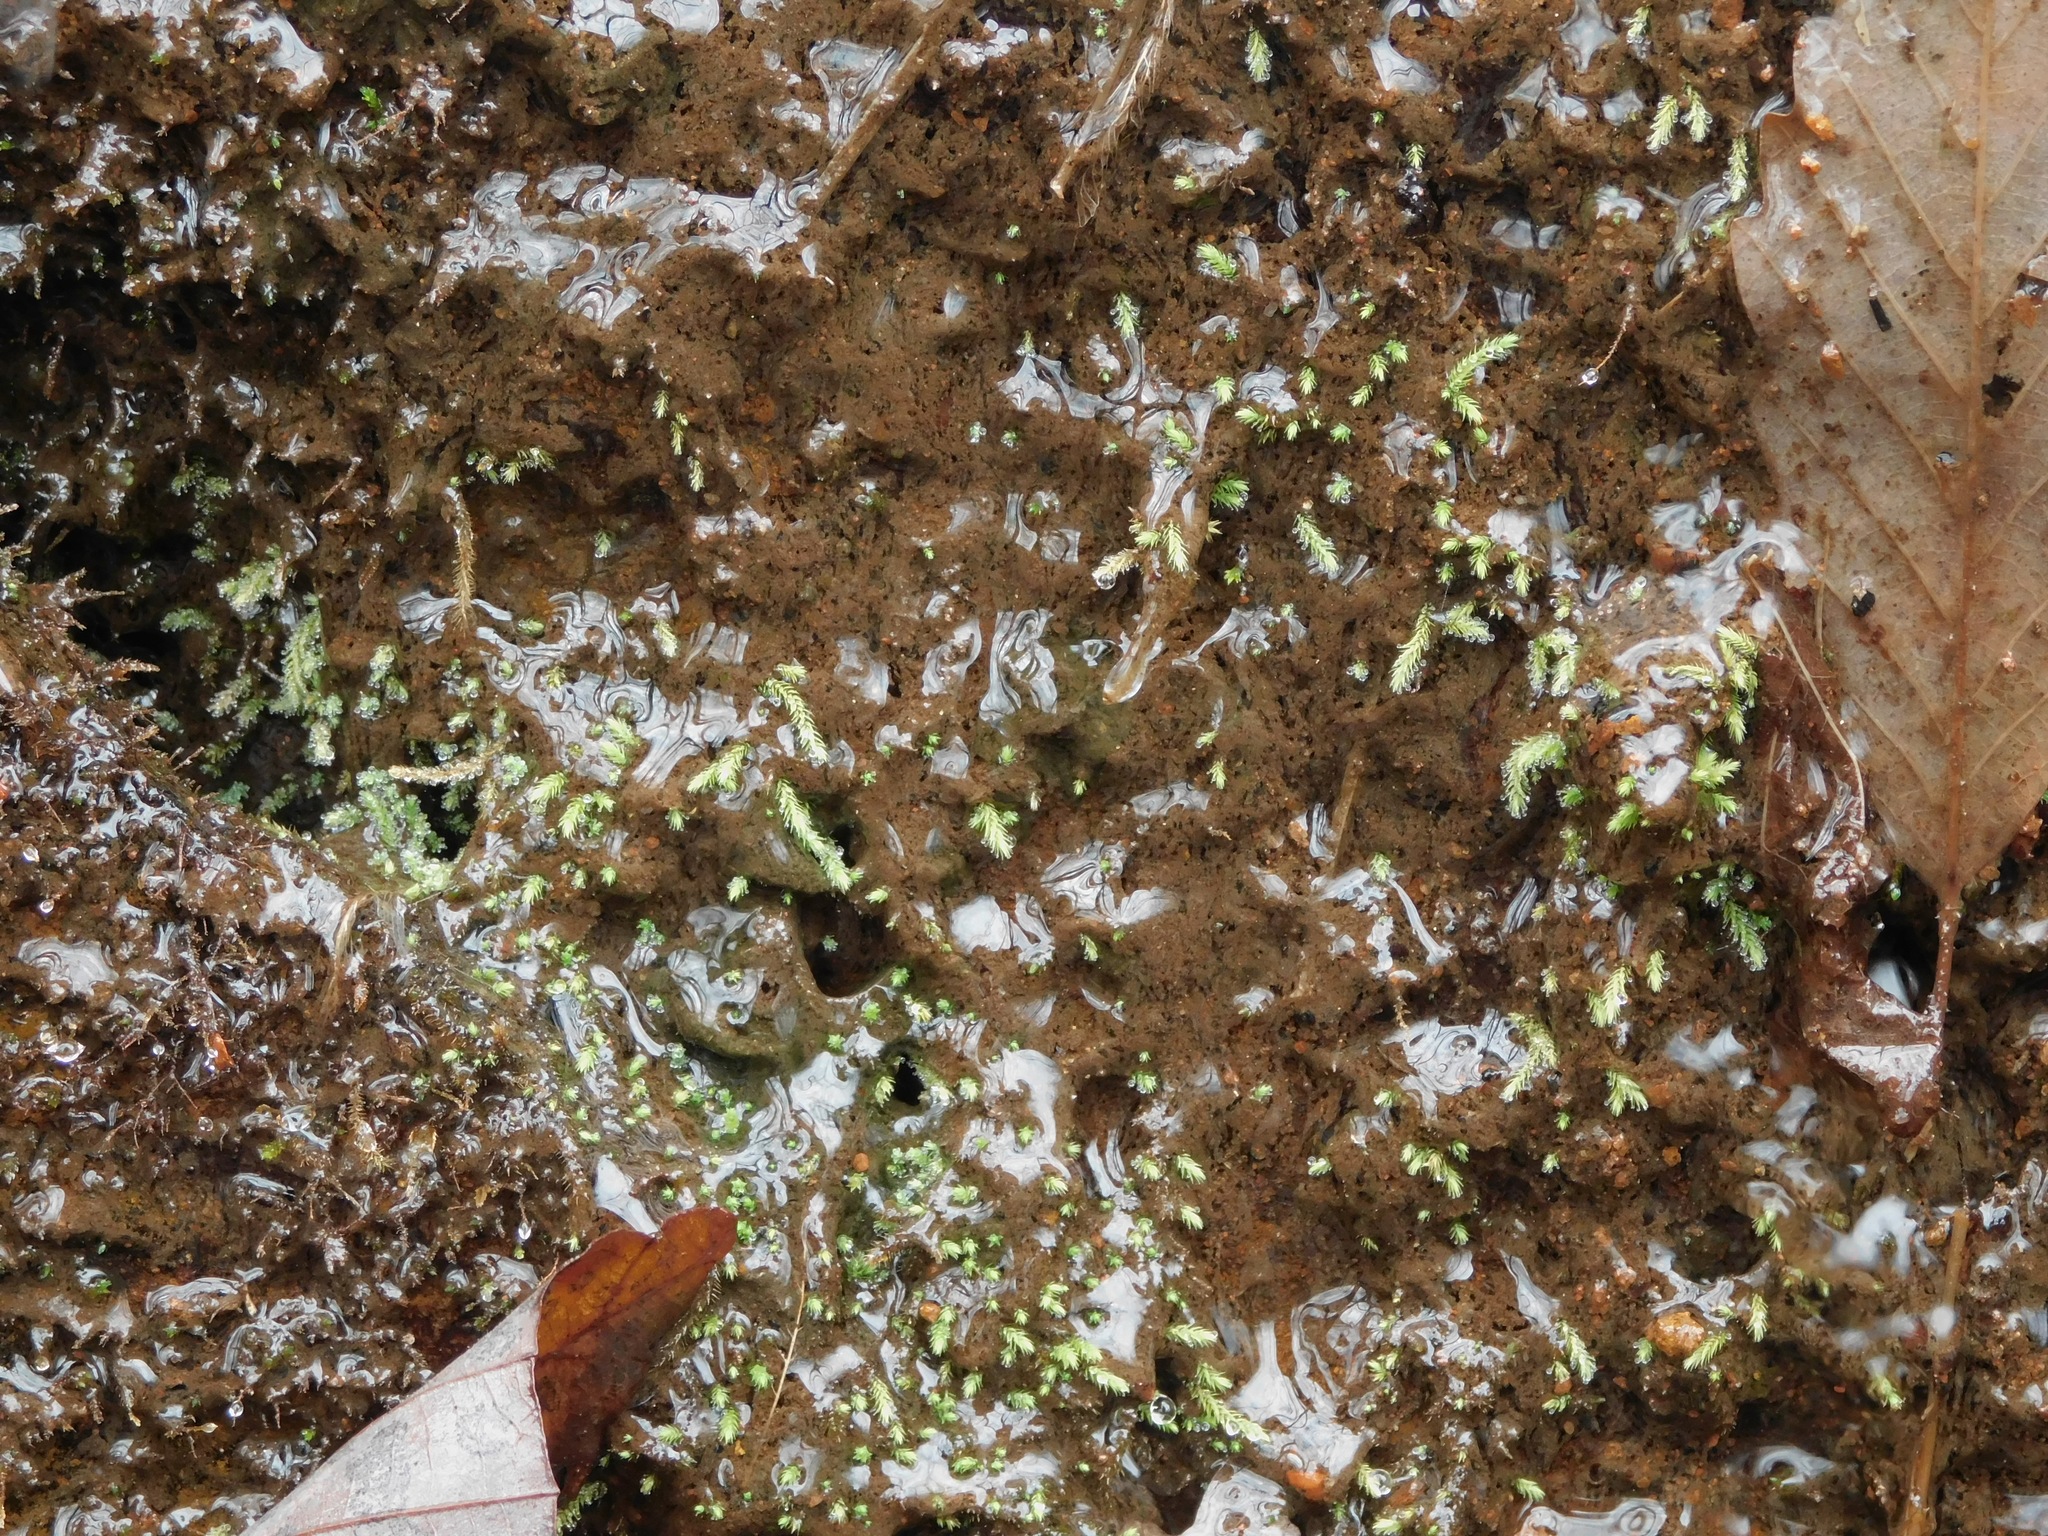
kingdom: Plantae
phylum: Bryophyta
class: Bryopsida
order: Bartramiales
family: Bartramiaceae
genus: Philonotis
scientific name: Philonotis capillaris
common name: Arnell's apple-moss
